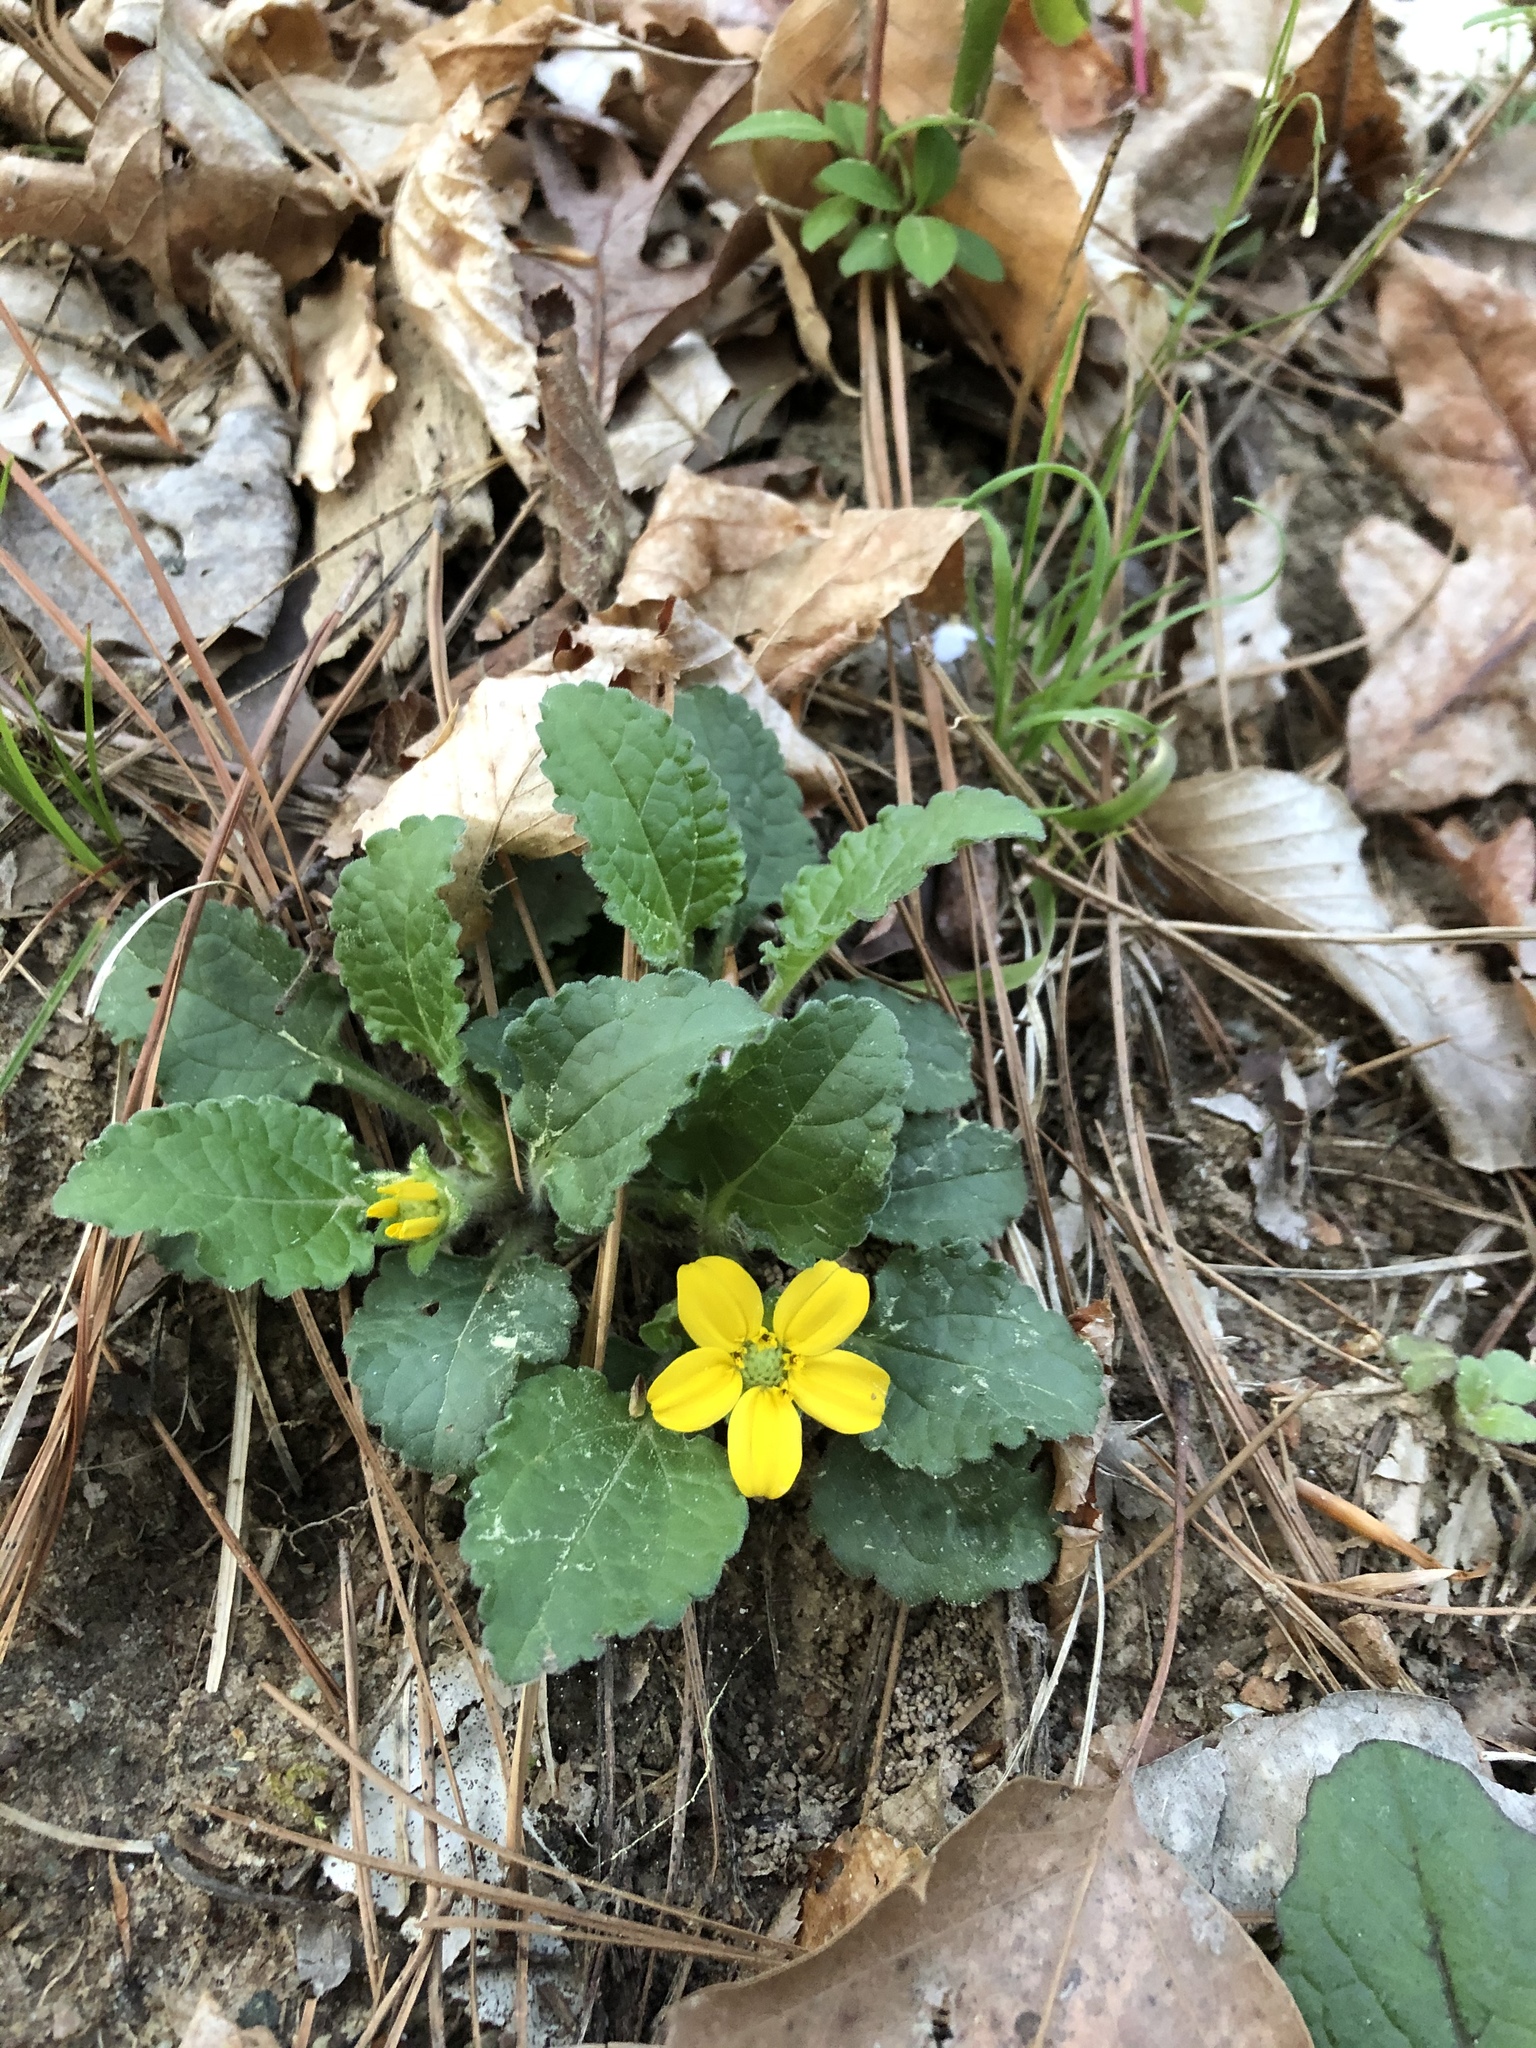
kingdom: Plantae
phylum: Tracheophyta
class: Magnoliopsida
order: Asterales
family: Asteraceae
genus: Chrysogonum
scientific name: Chrysogonum virginianum
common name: Golden-knee
